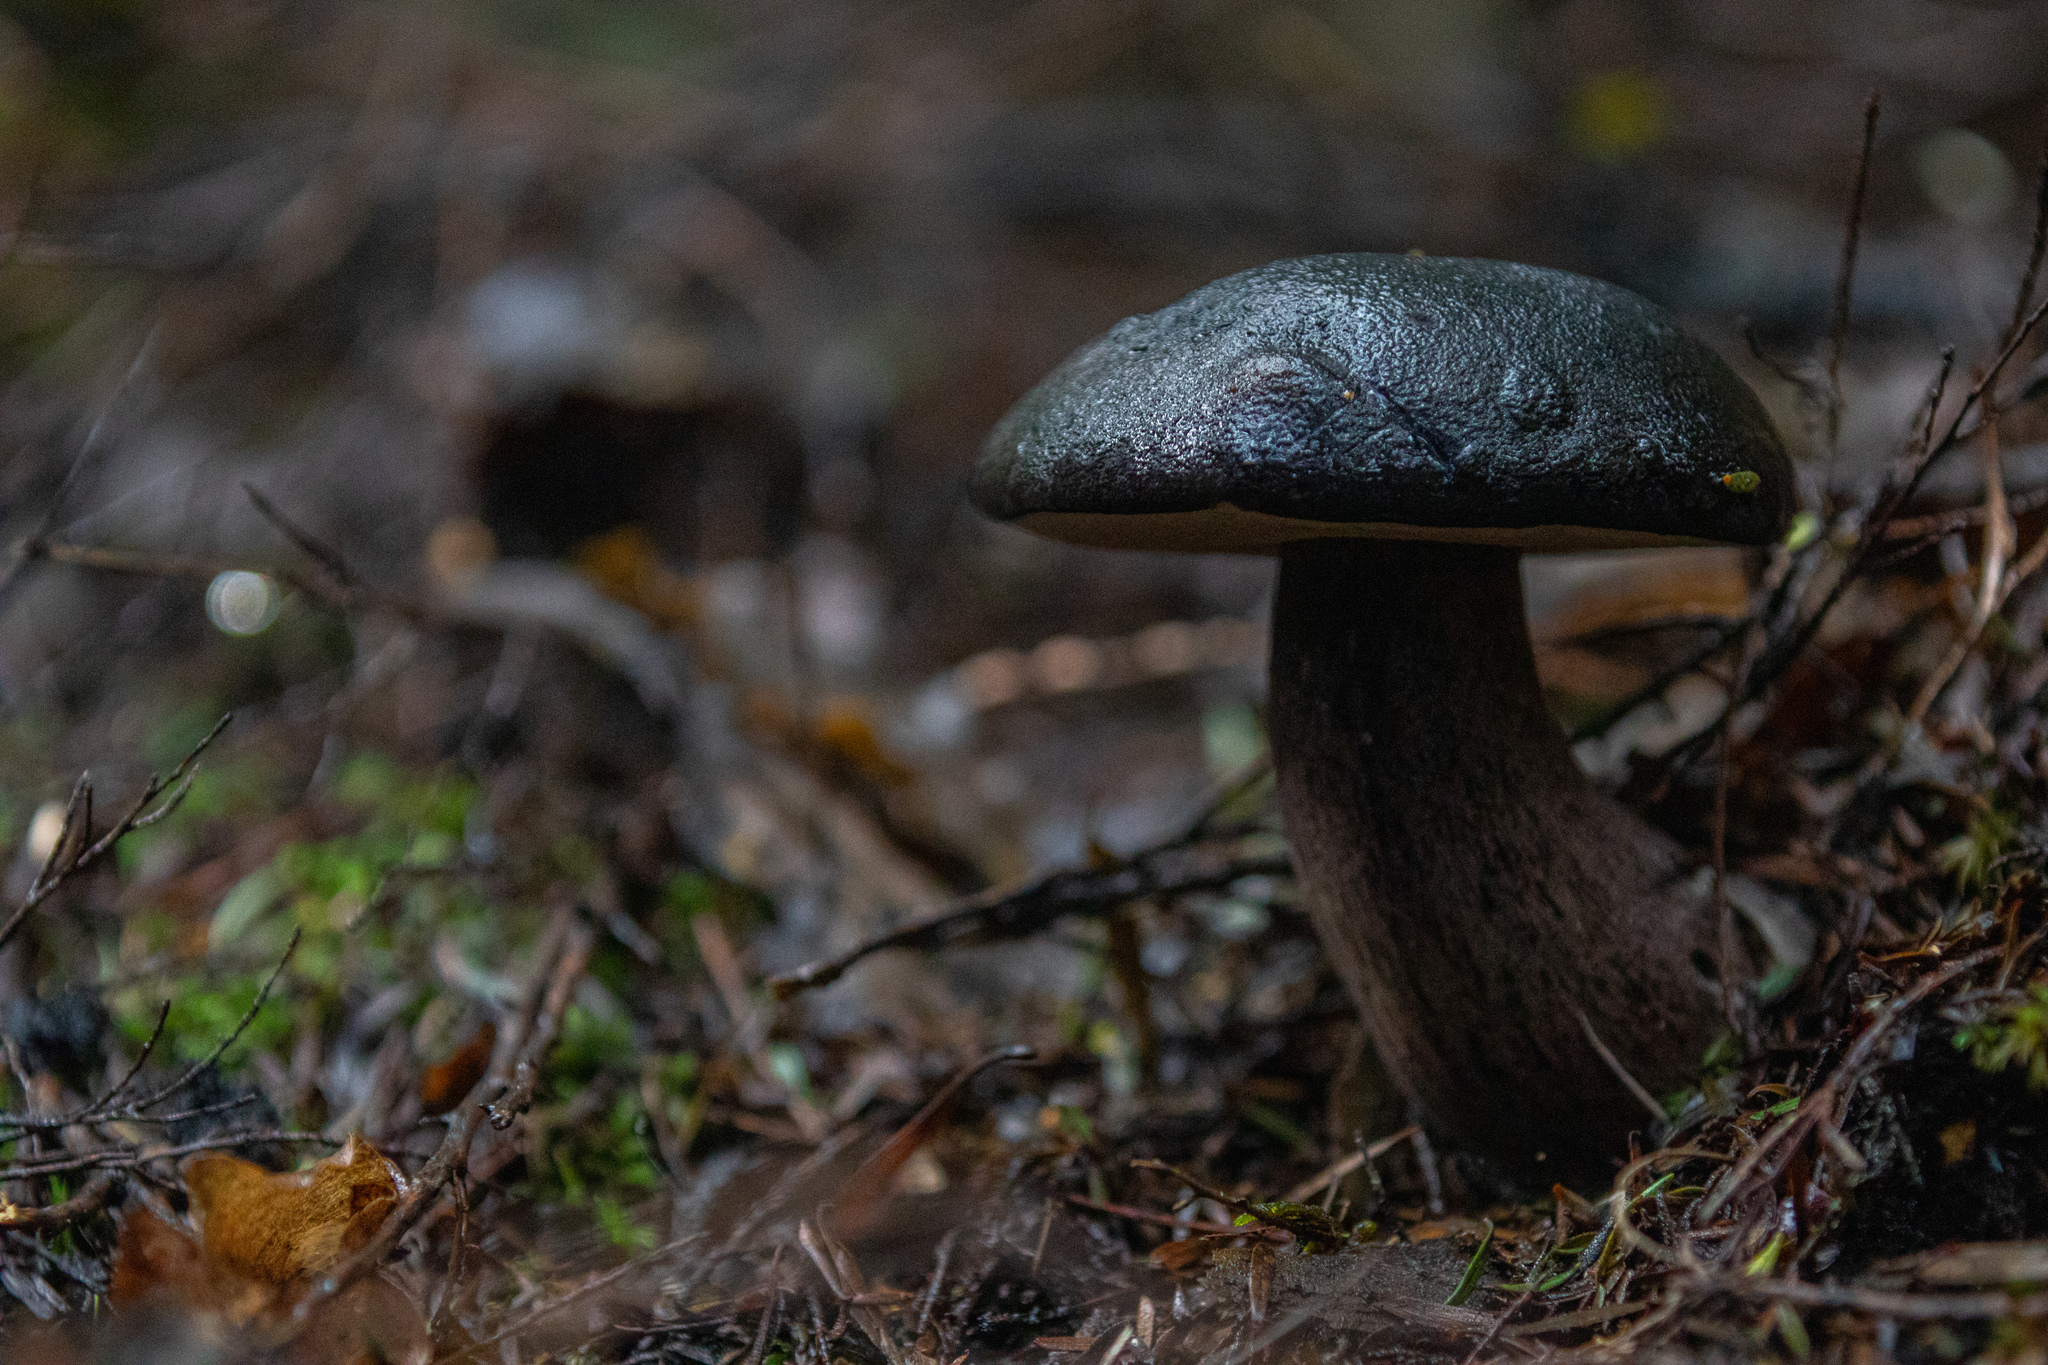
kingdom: Fungi
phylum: Basidiomycota
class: Agaricomycetes
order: Boletales
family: Boletaceae
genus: Porphyrellus
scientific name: Porphyrellus formosus
